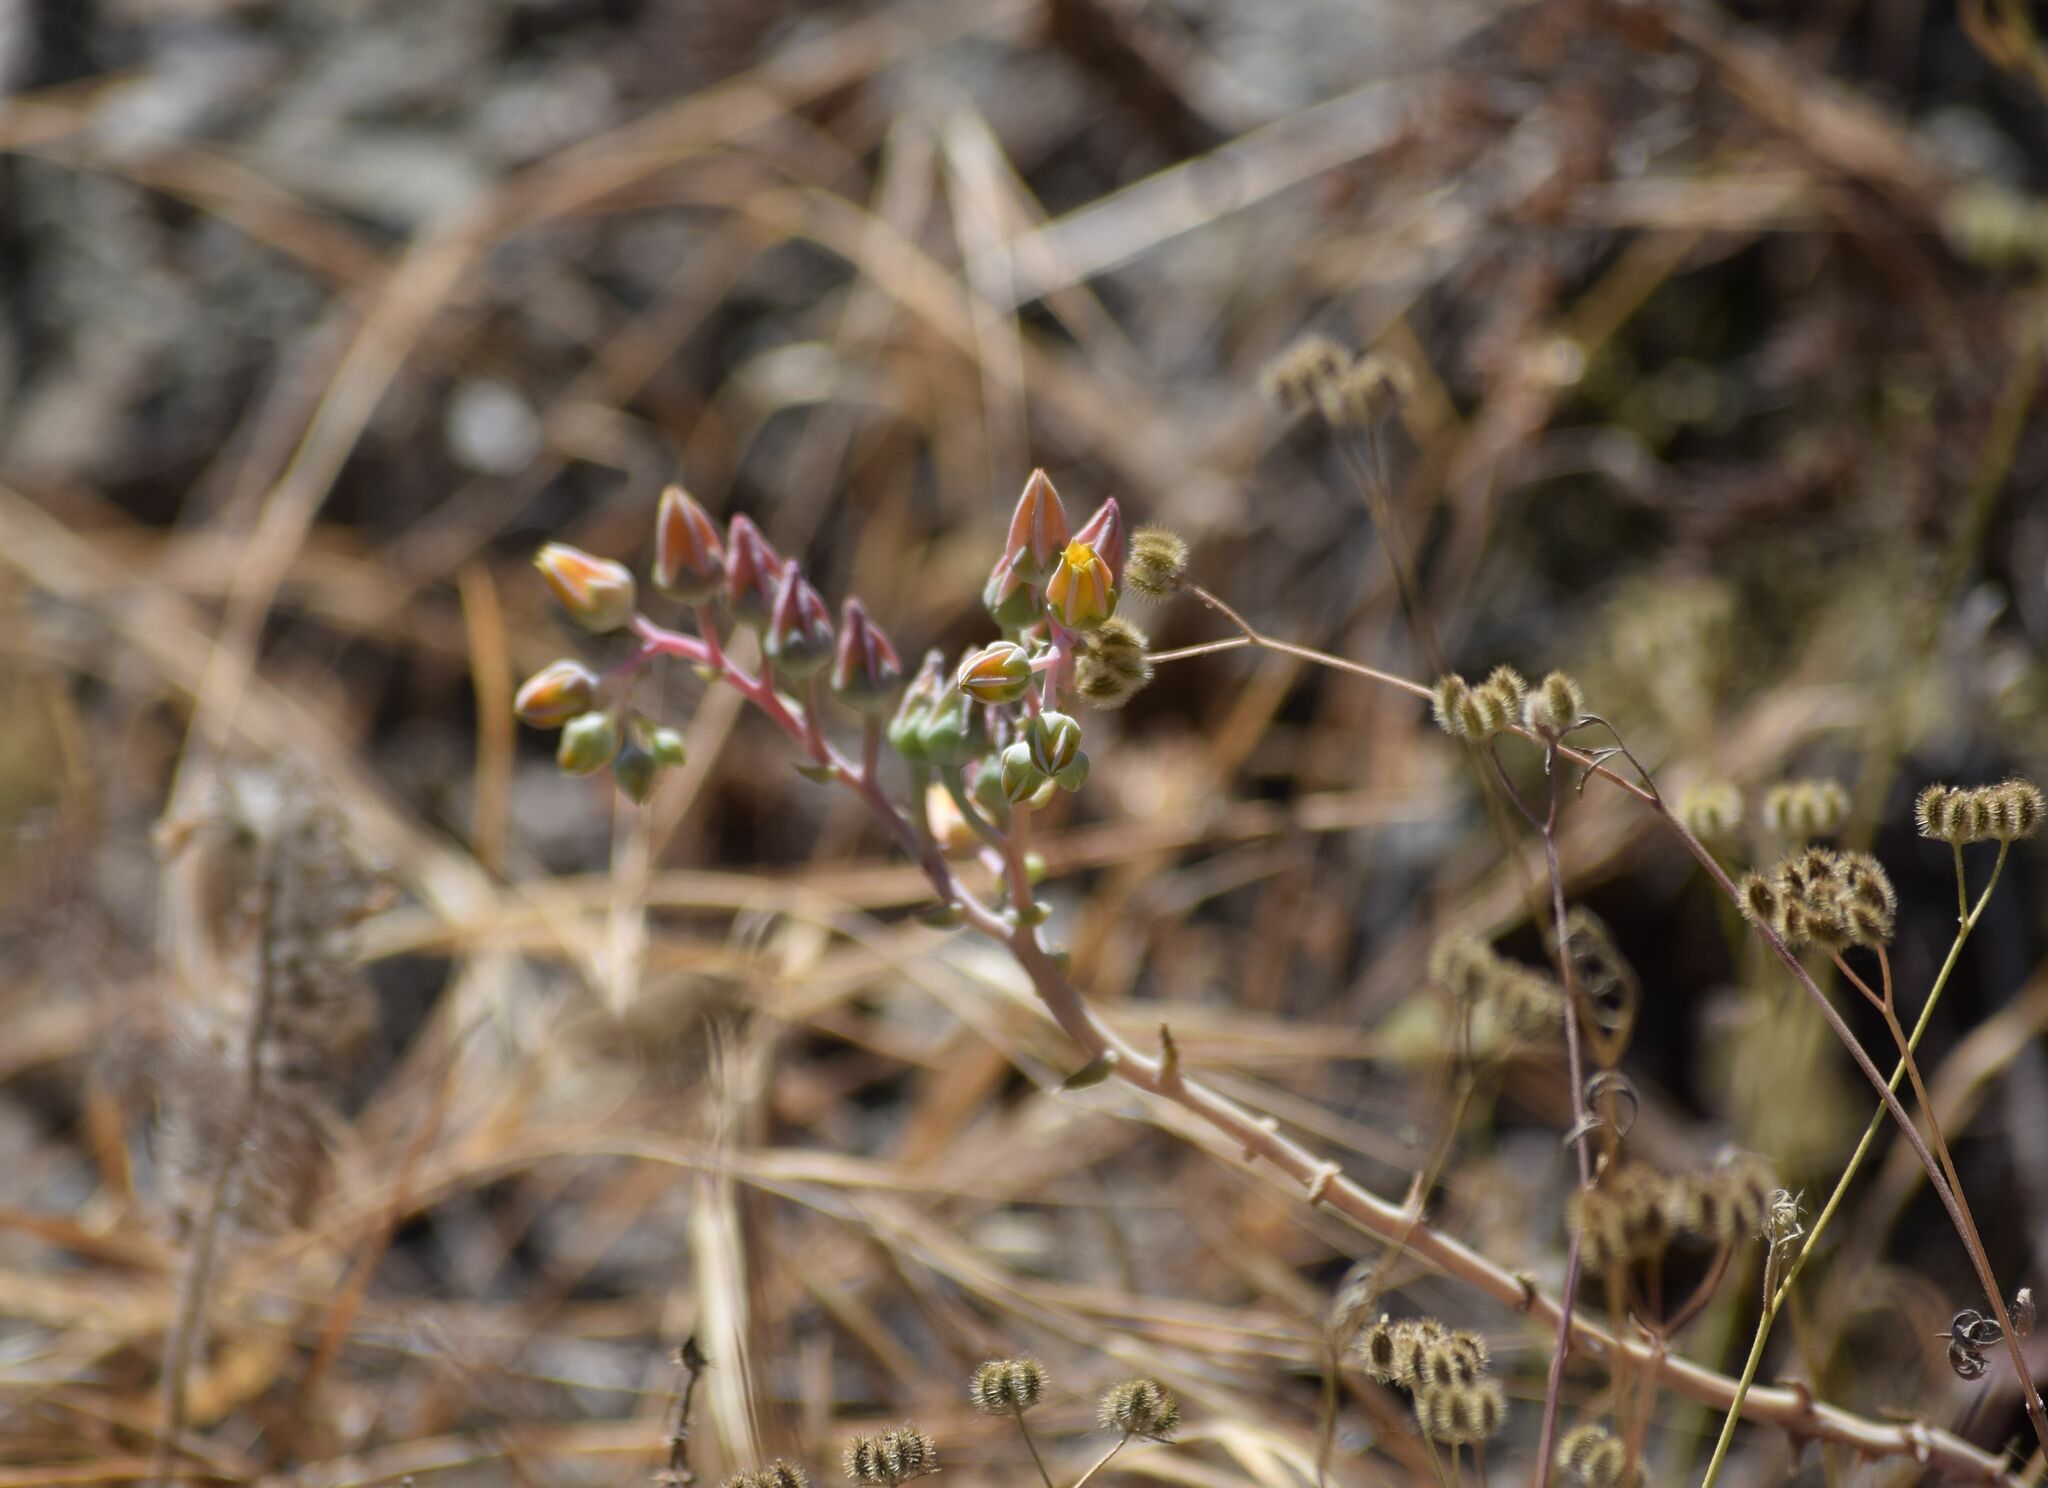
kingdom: Plantae
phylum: Tracheophyta
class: Magnoliopsida
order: Saxifragales
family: Crassulaceae
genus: Dudleya
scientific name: Dudleya lanceolata
